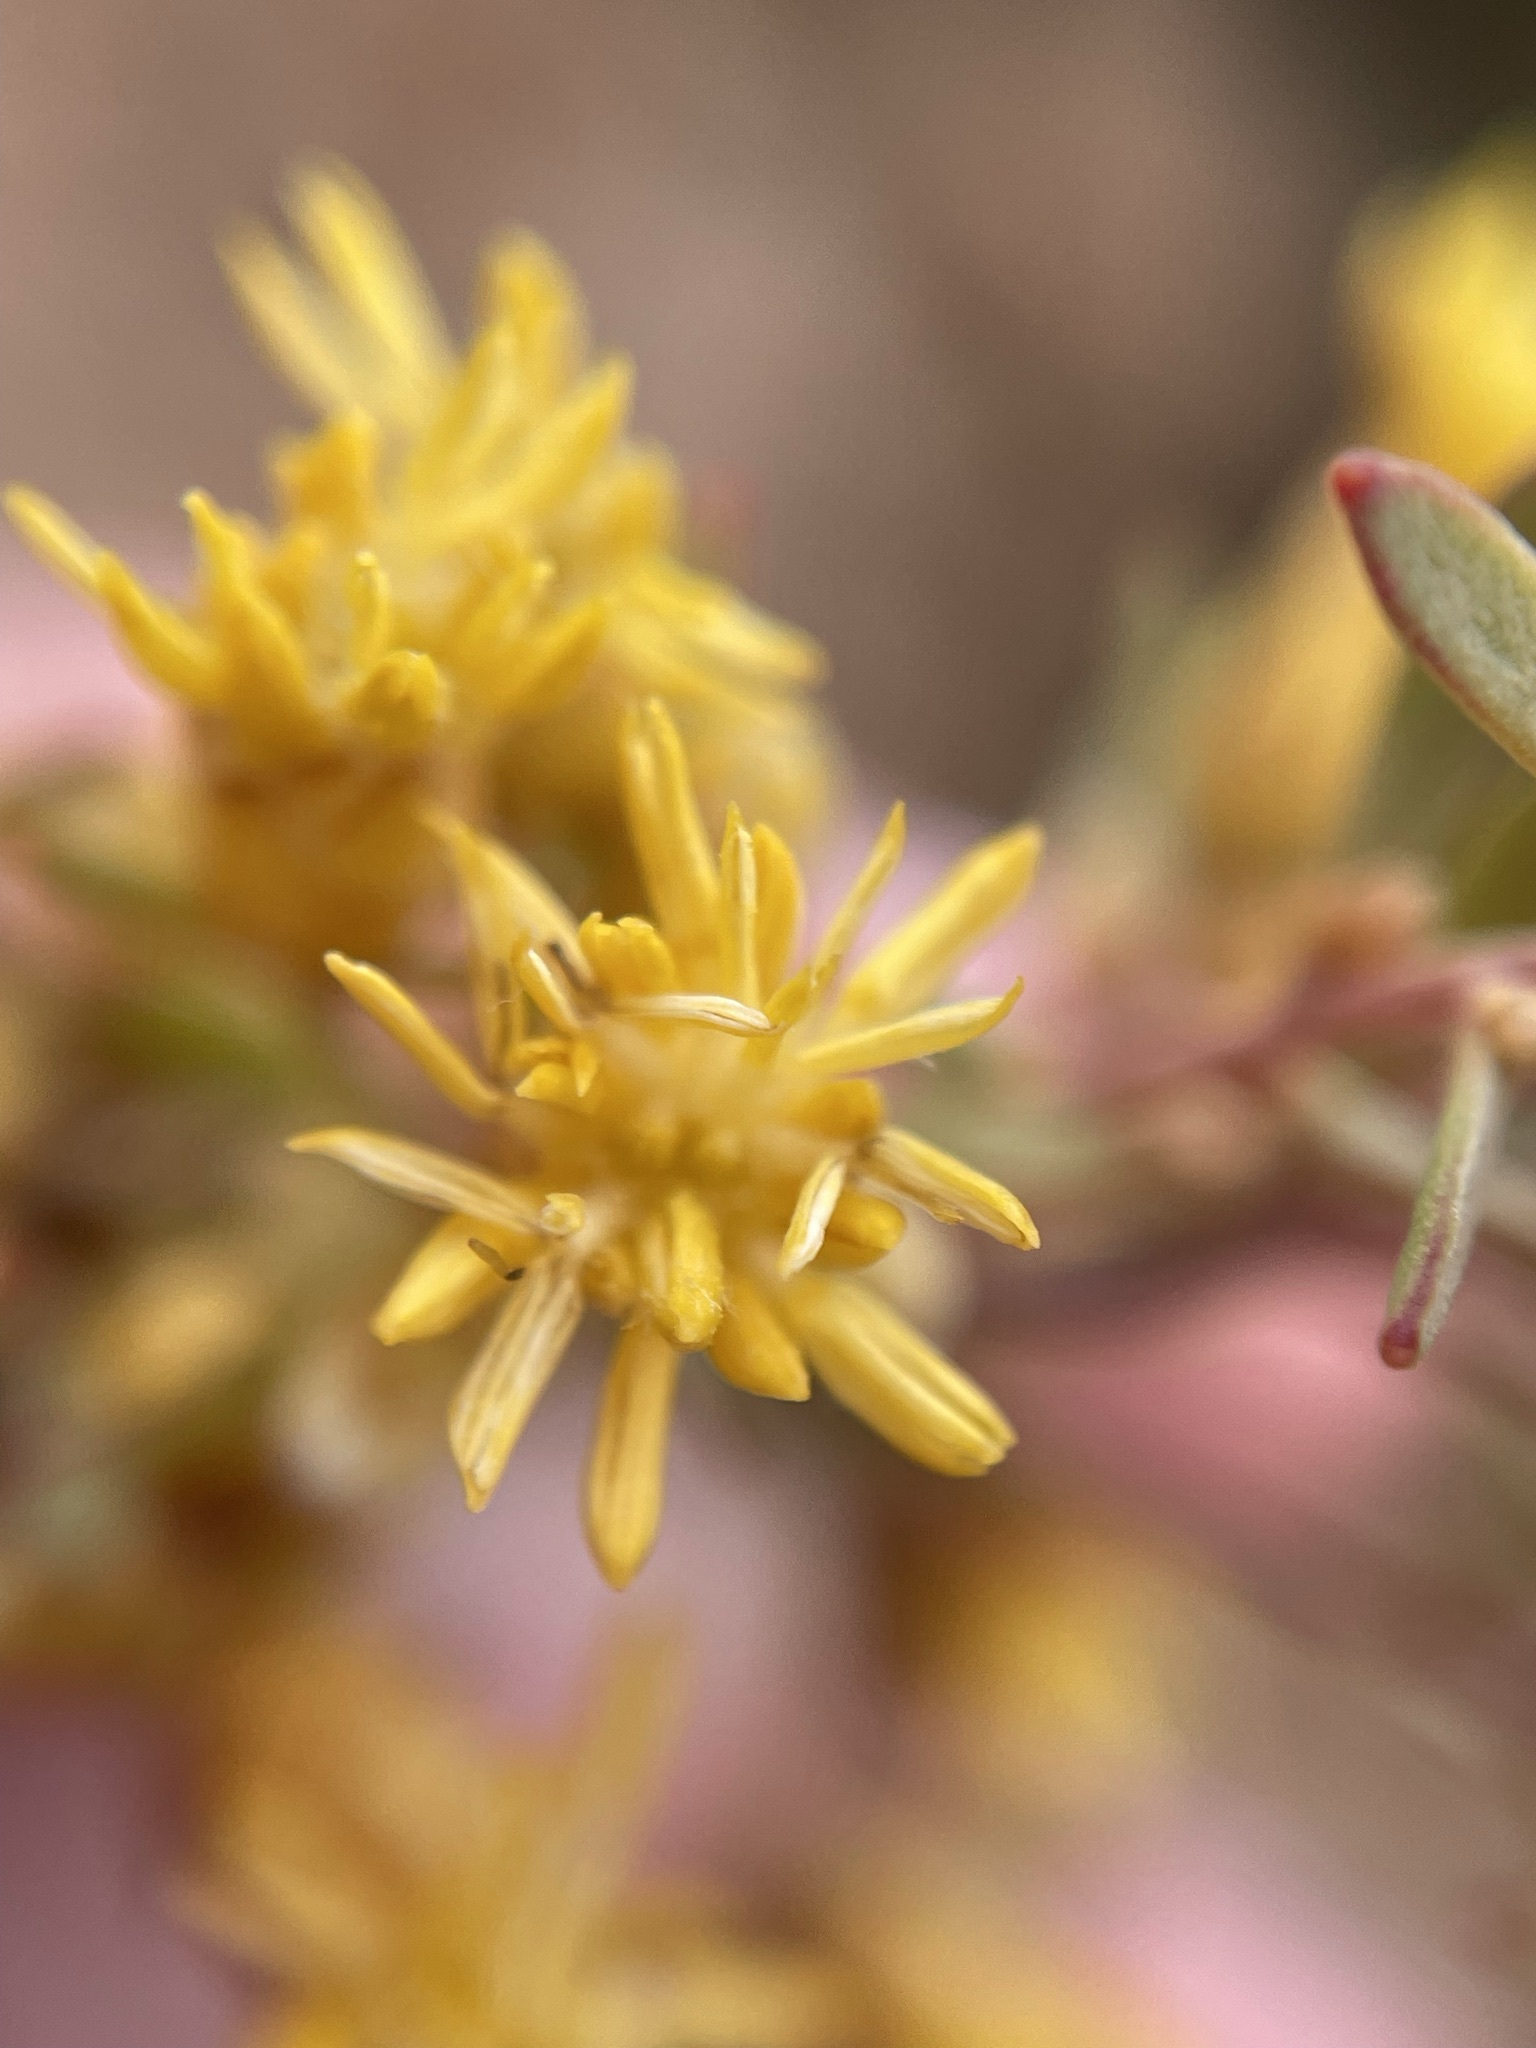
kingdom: Plantae
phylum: Tracheophyta
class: Magnoliopsida
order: Proteales
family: Proteaceae
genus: Leucadendron
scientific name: Leucadendron rubrum
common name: Spinning top
